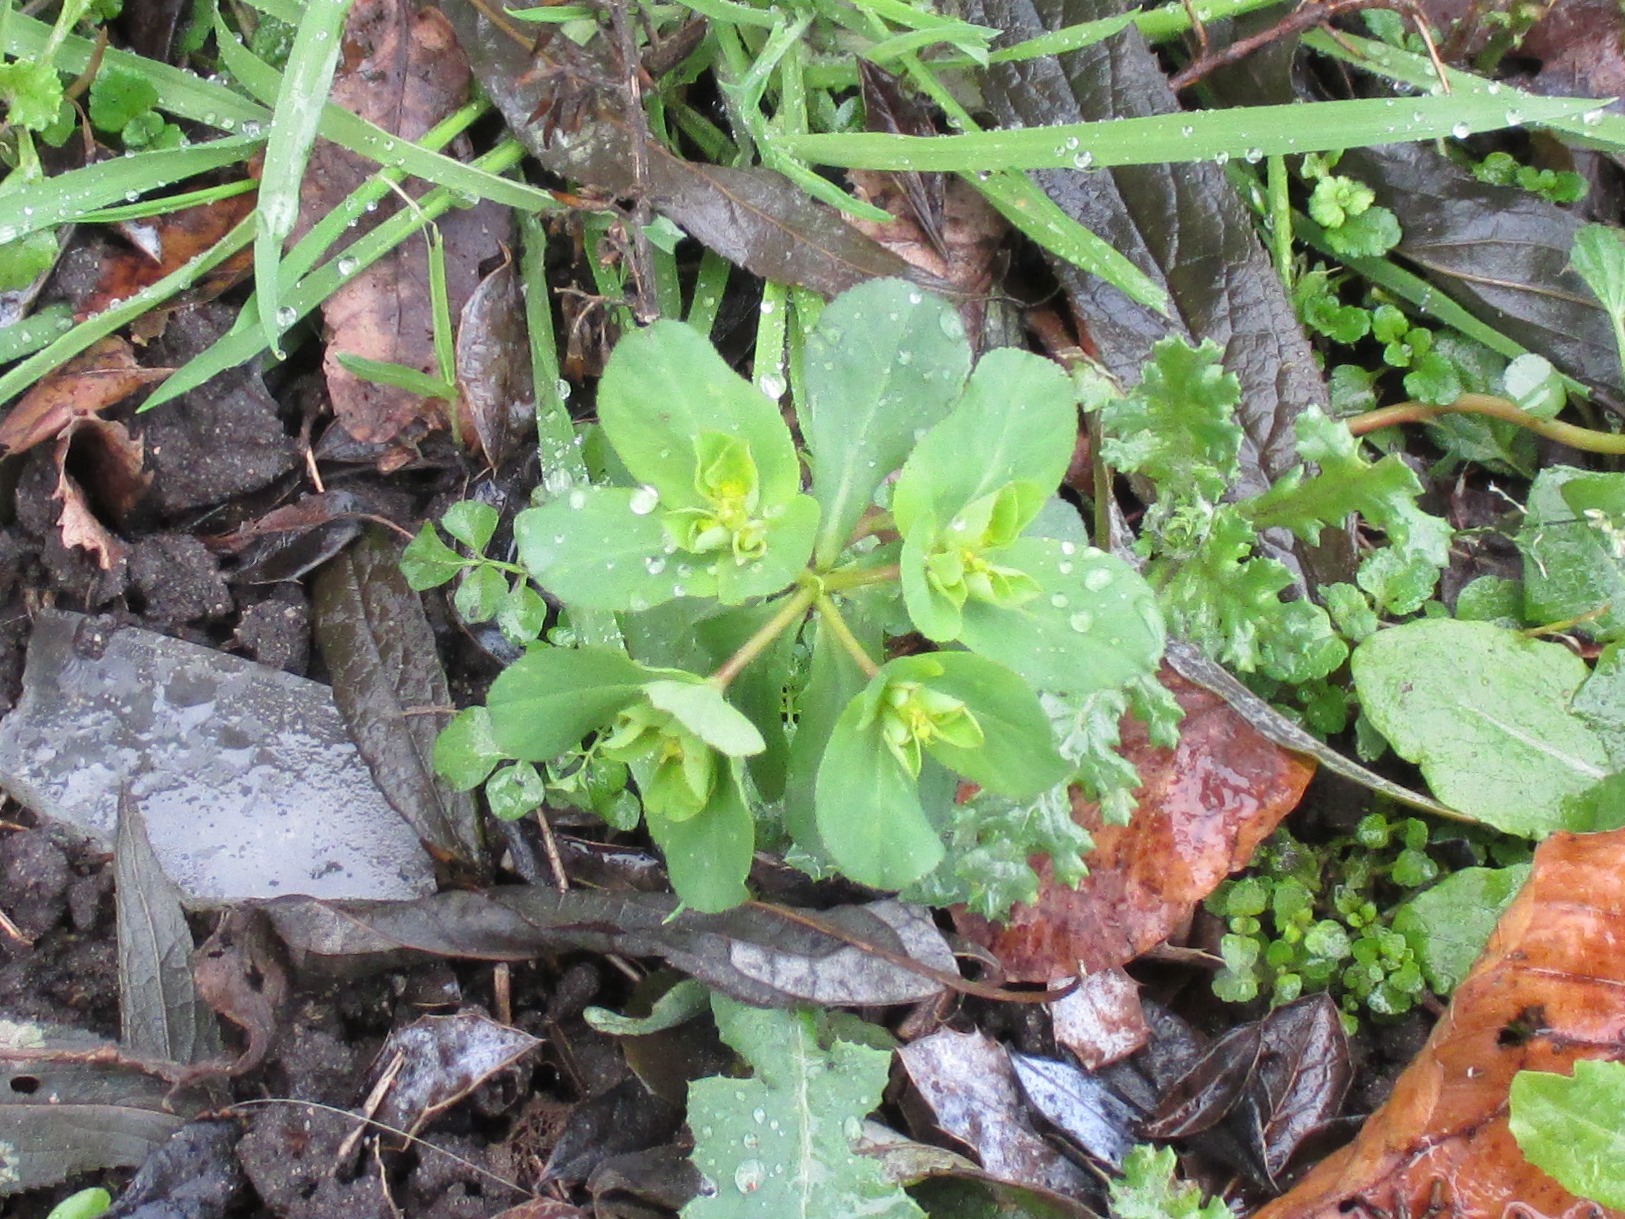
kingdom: Plantae
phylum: Tracheophyta
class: Magnoliopsida
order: Malpighiales
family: Euphorbiaceae
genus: Euphorbia
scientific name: Euphorbia helioscopia
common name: Sun spurge
